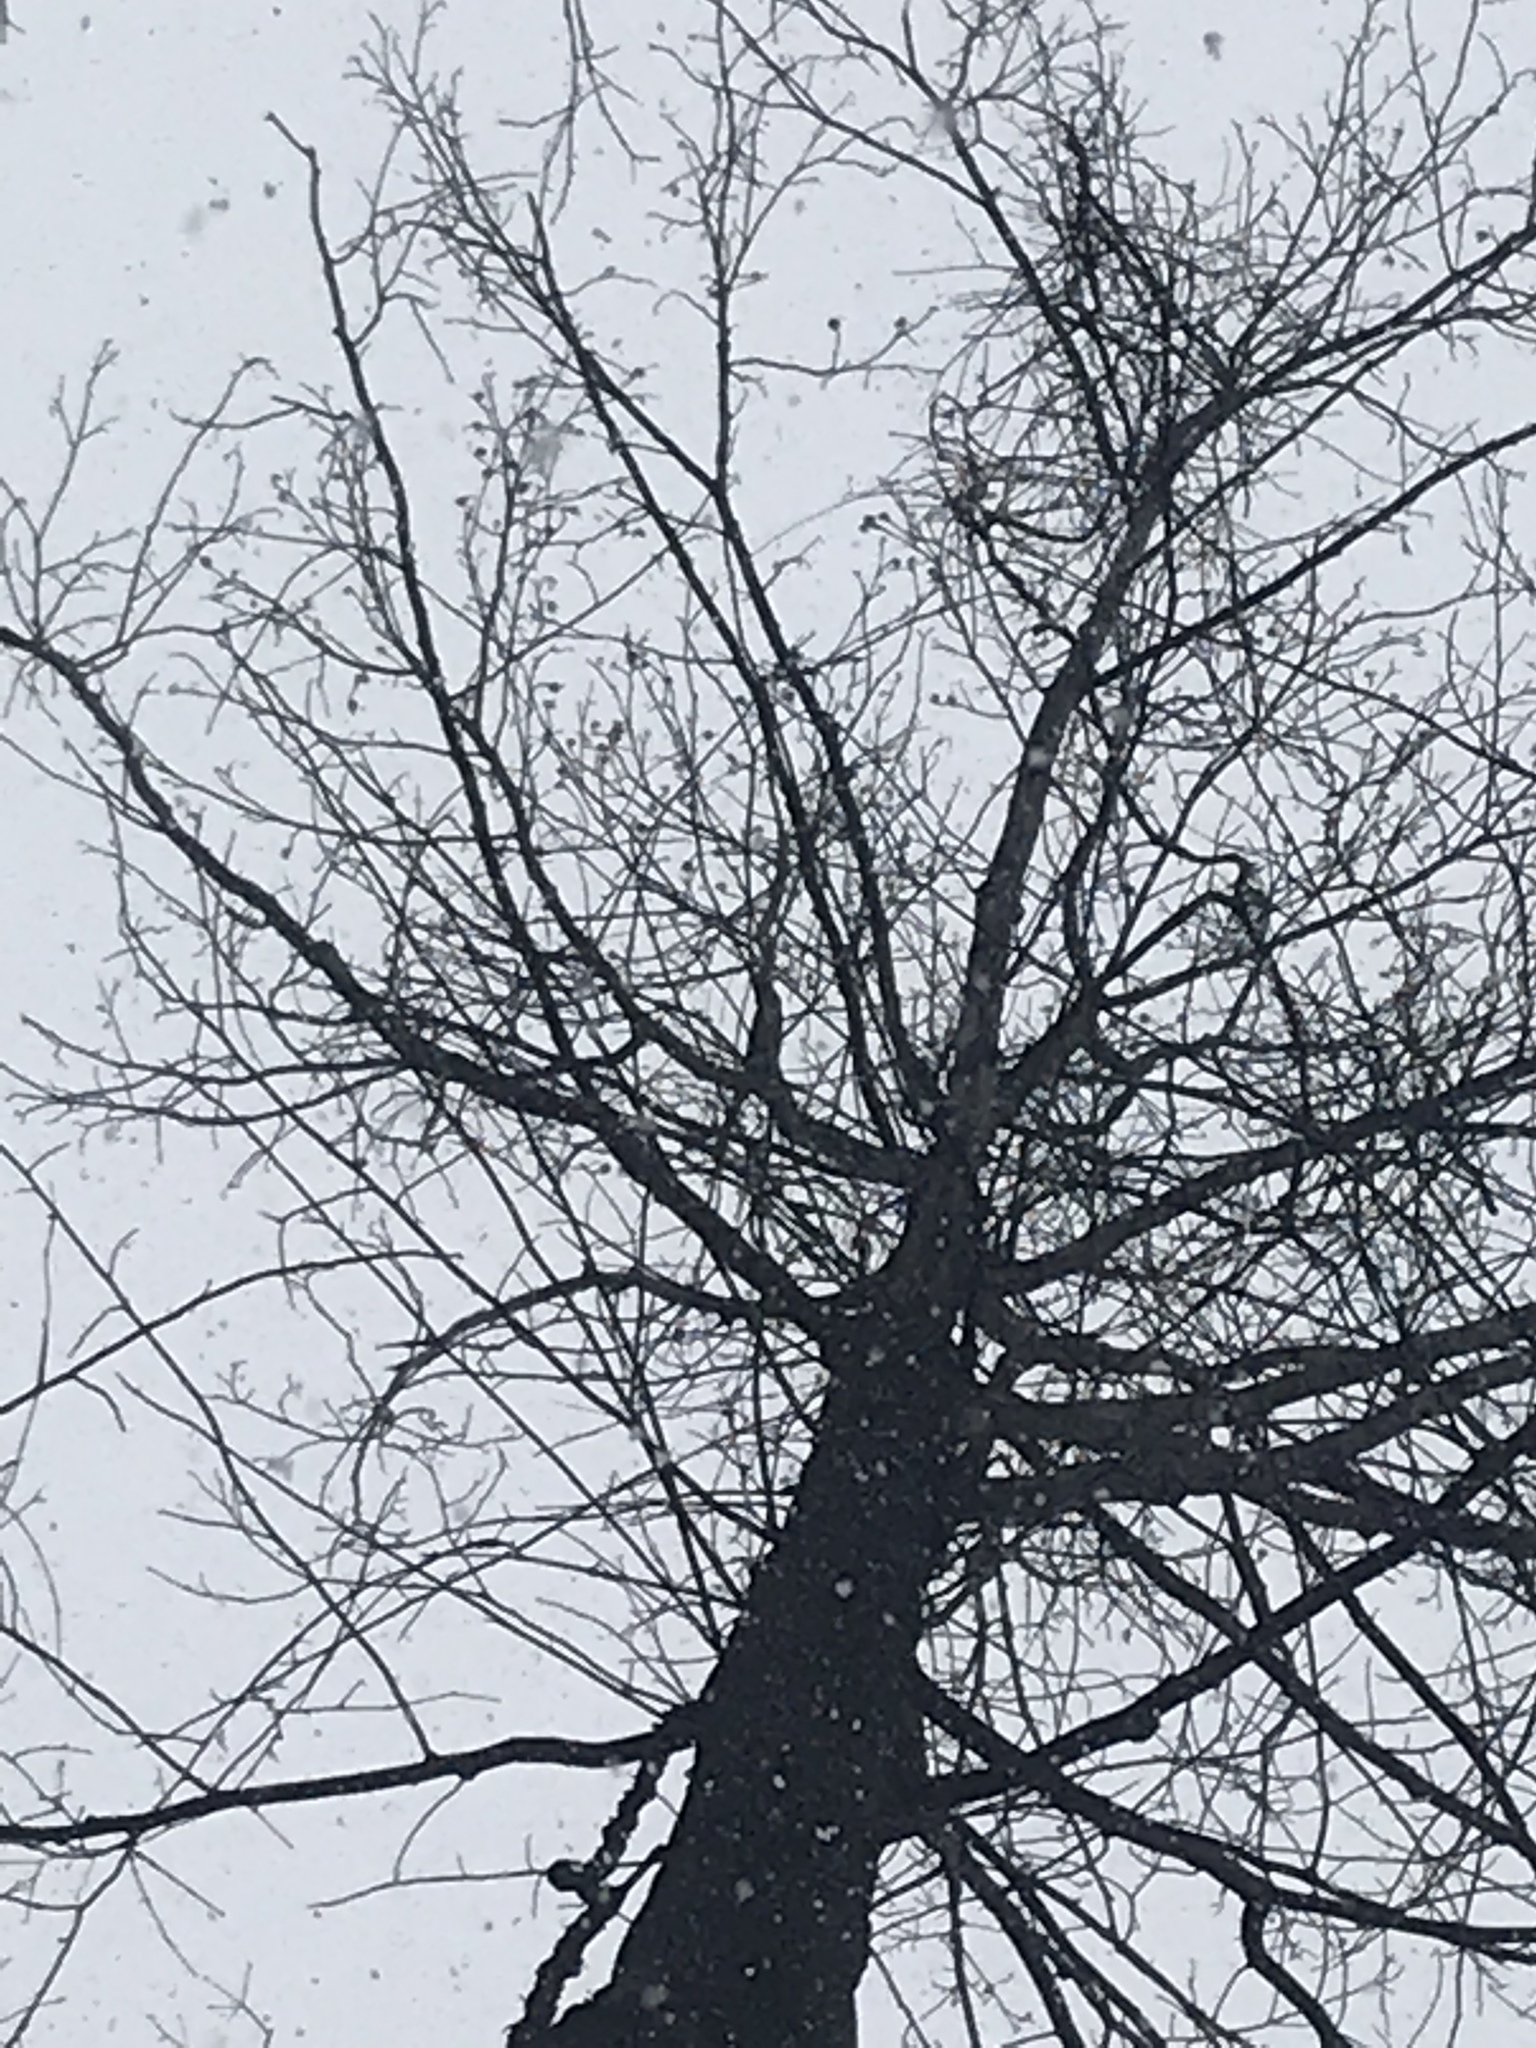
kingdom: Plantae
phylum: Tracheophyta
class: Magnoliopsida
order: Magnoliales
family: Magnoliaceae
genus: Liriodendron
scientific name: Liriodendron tulipifera
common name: Tulip tree
